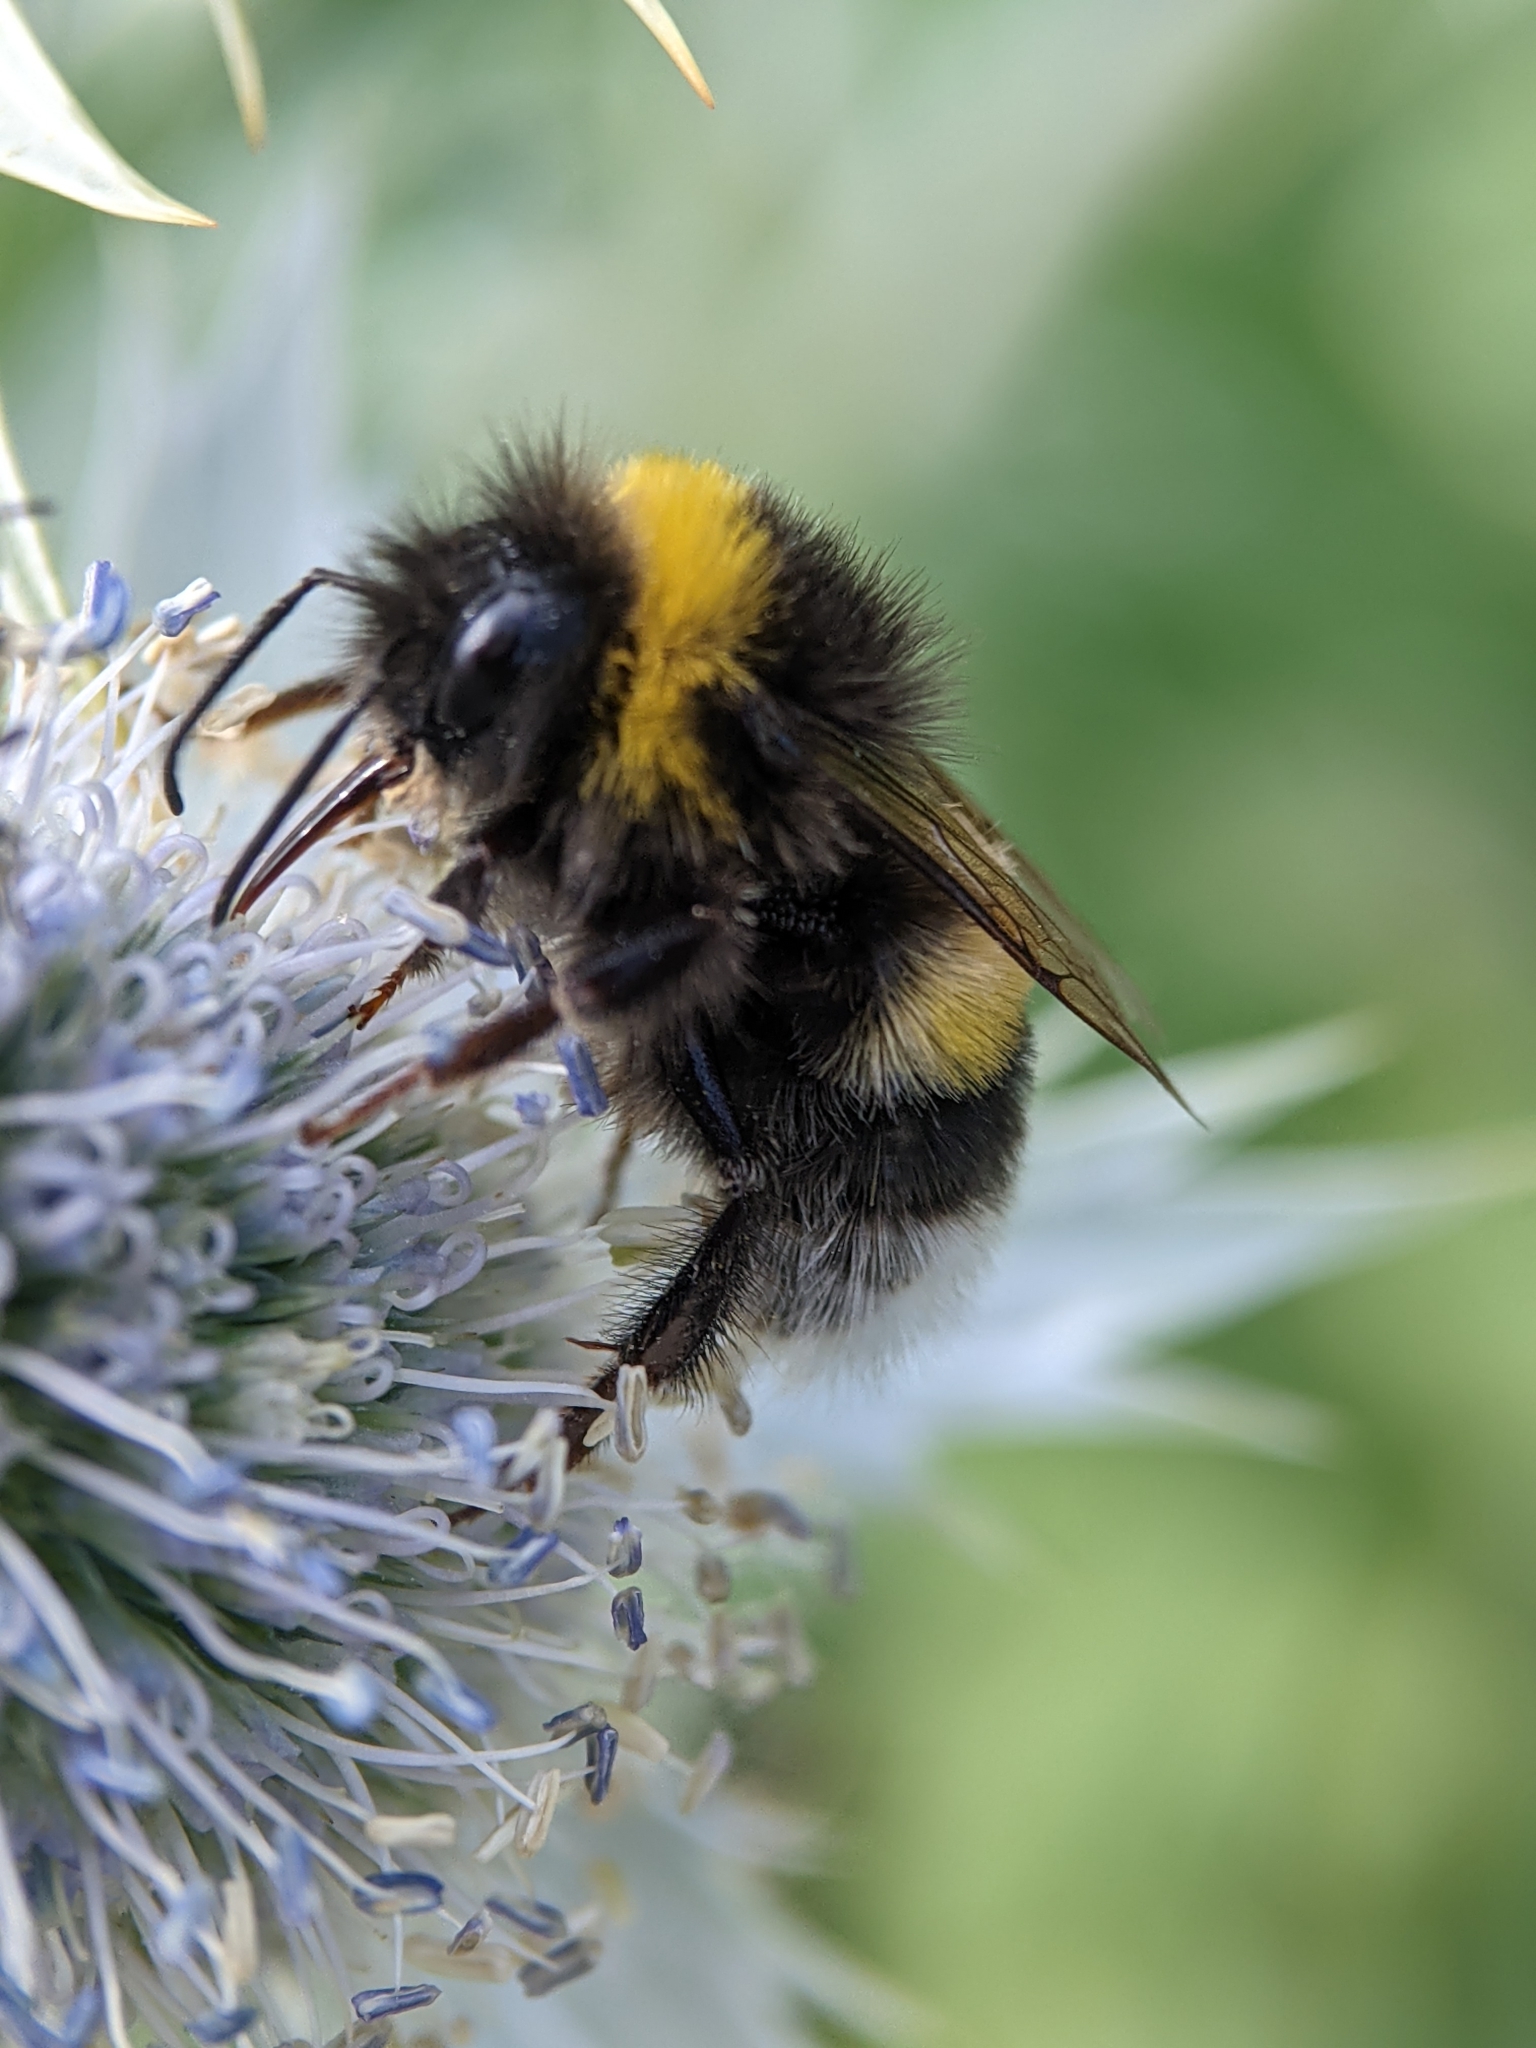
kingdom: Animalia
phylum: Arthropoda
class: Insecta
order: Hymenoptera
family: Apidae
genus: Bombus
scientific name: Bombus terrestris
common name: Buff-tailed bumblebee
